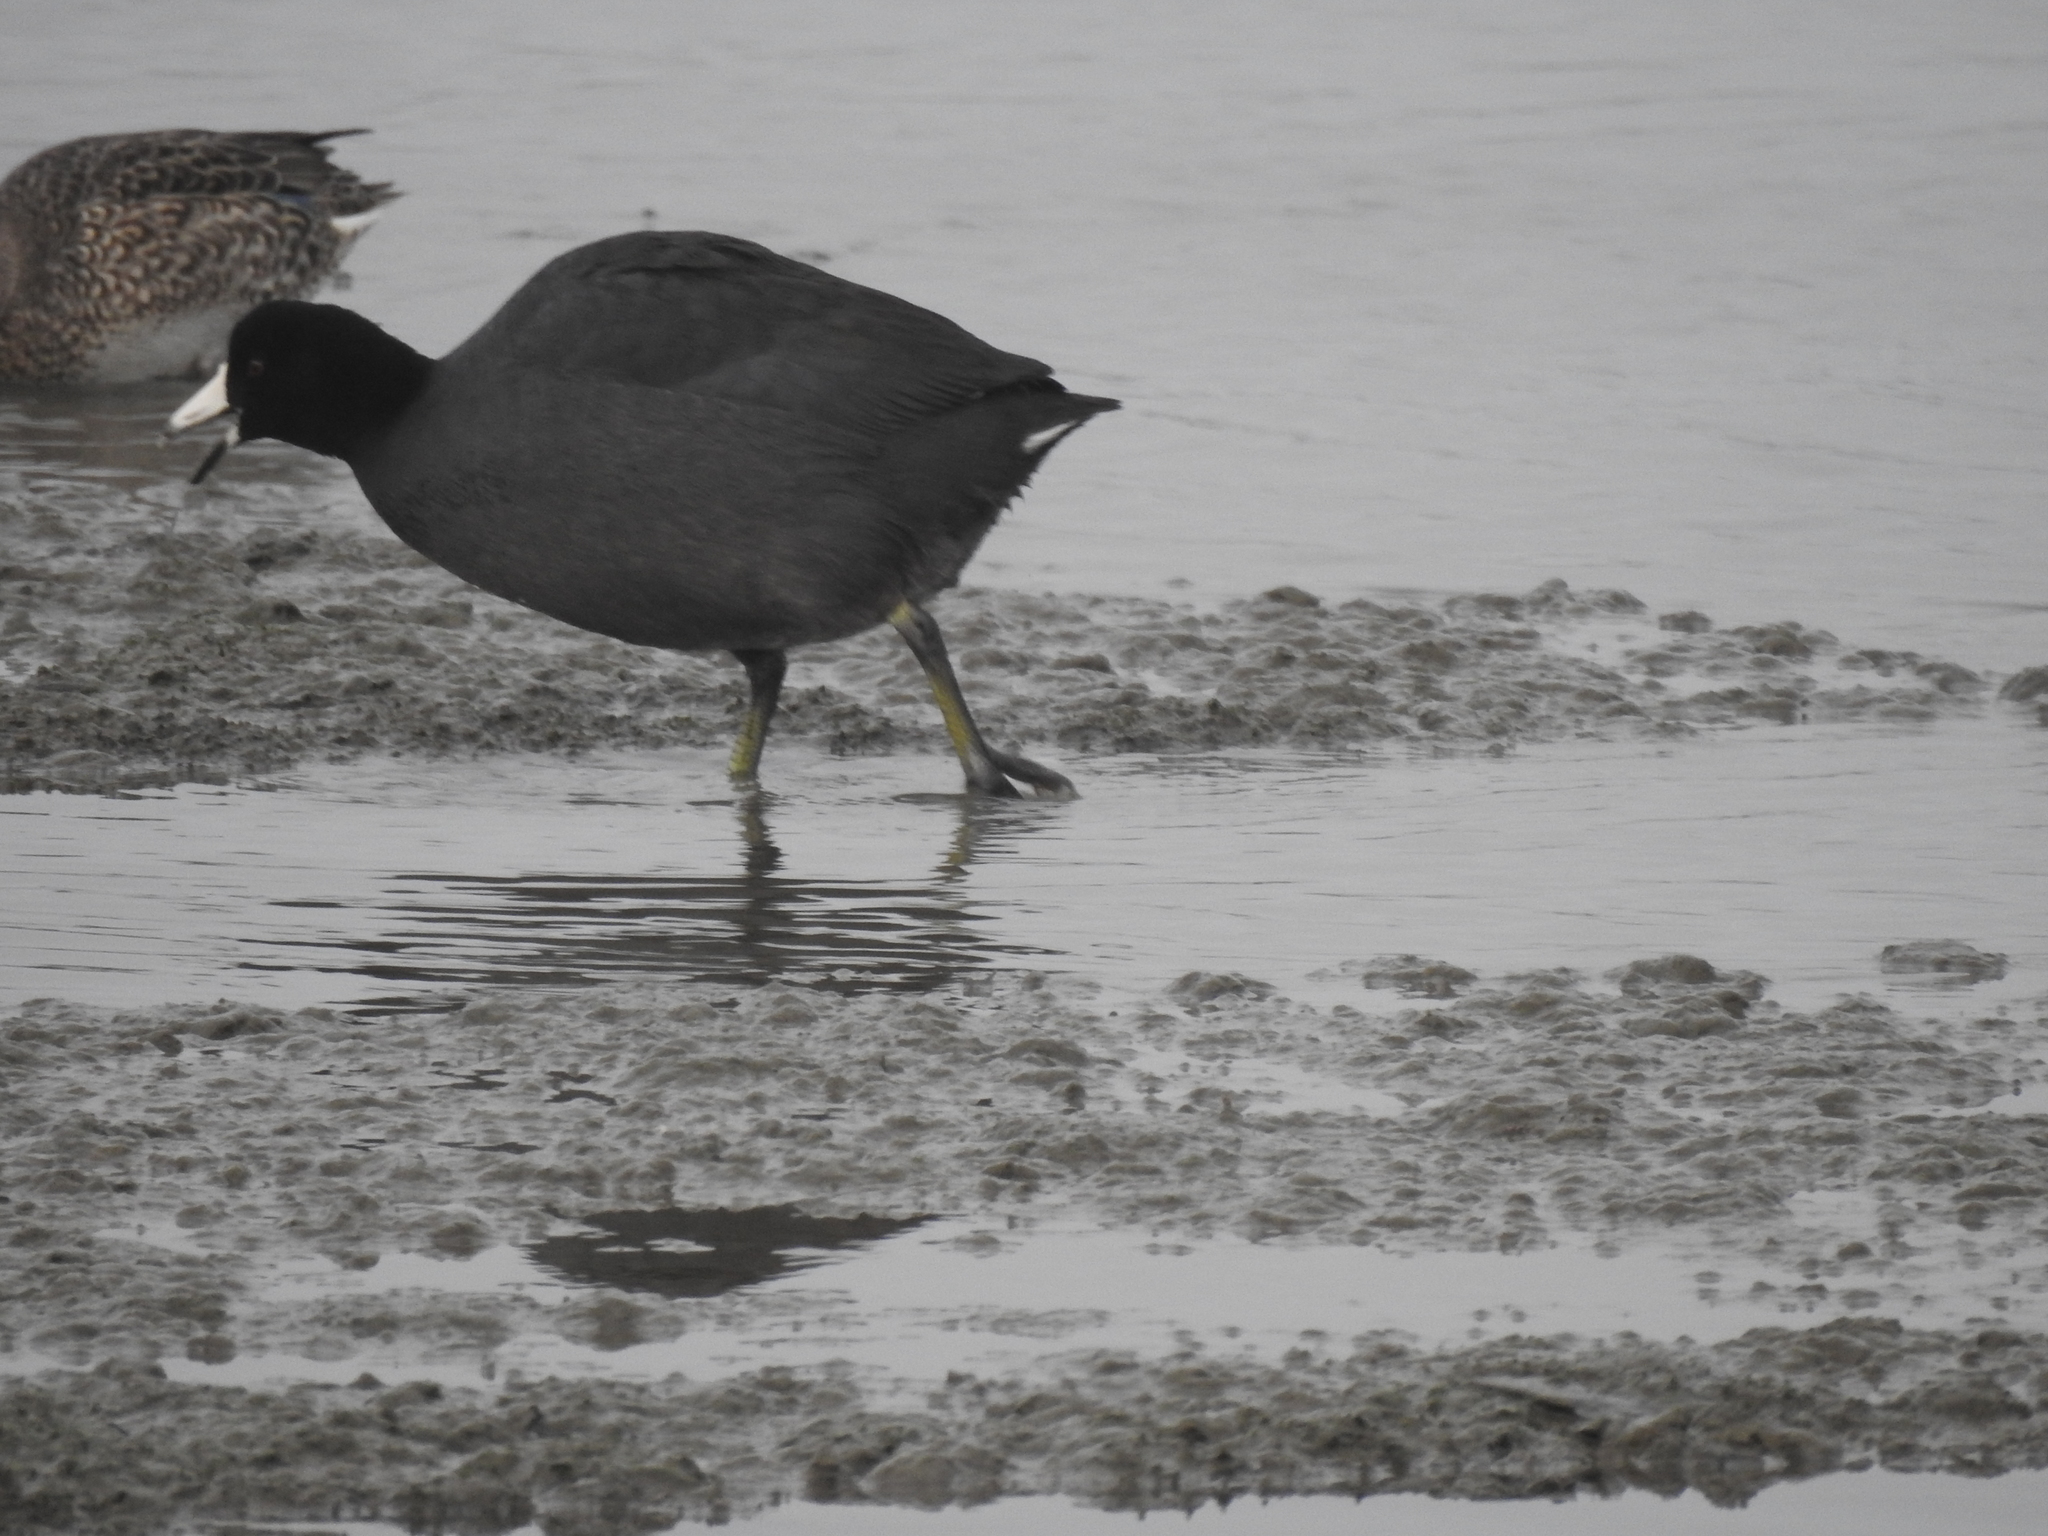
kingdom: Animalia
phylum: Chordata
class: Aves
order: Gruiformes
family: Rallidae
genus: Fulica
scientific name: Fulica americana
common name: American coot
